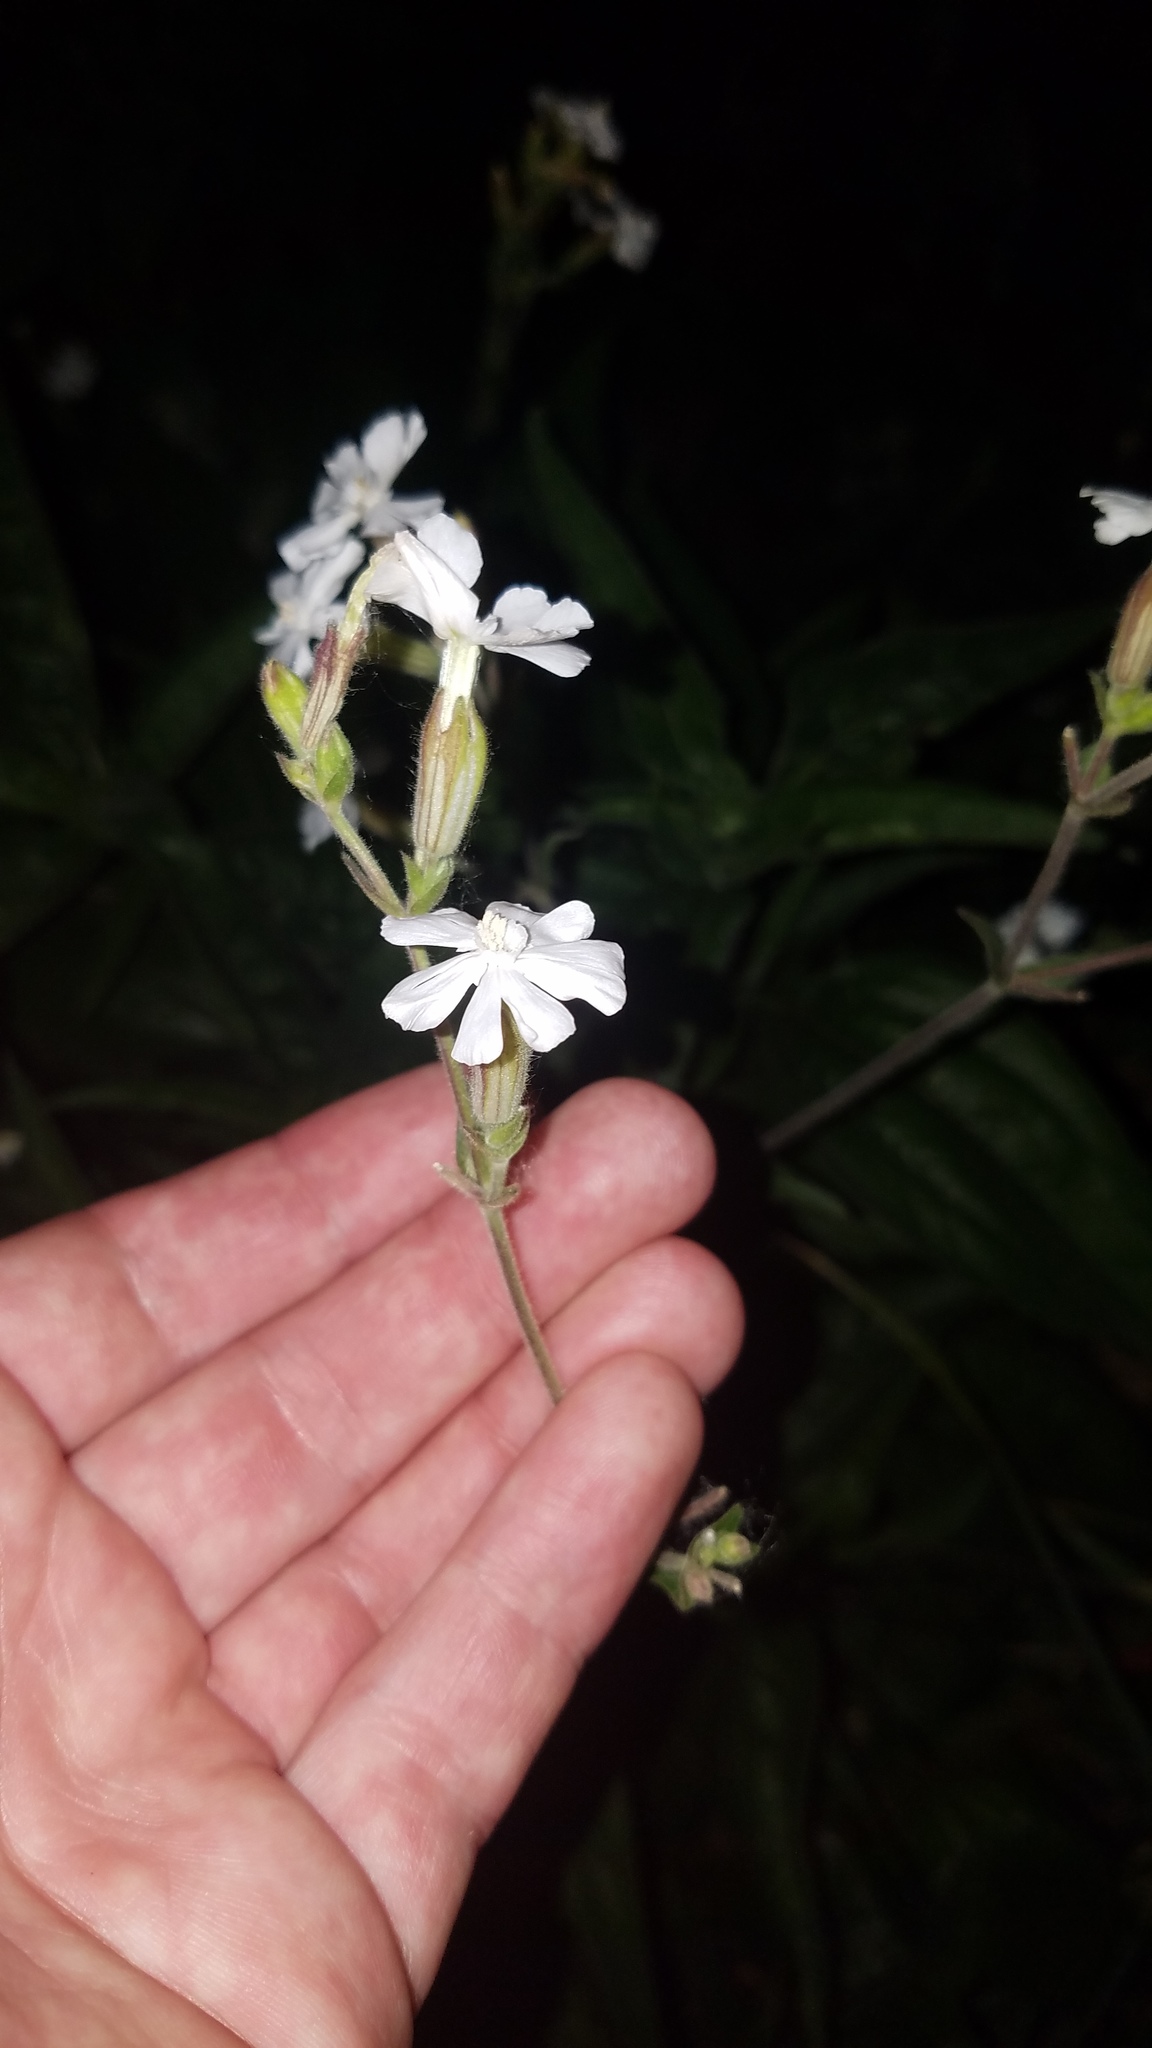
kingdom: Plantae
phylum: Tracheophyta
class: Magnoliopsida
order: Caryophyllales
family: Caryophyllaceae
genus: Silene
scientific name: Silene latifolia
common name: White campion
